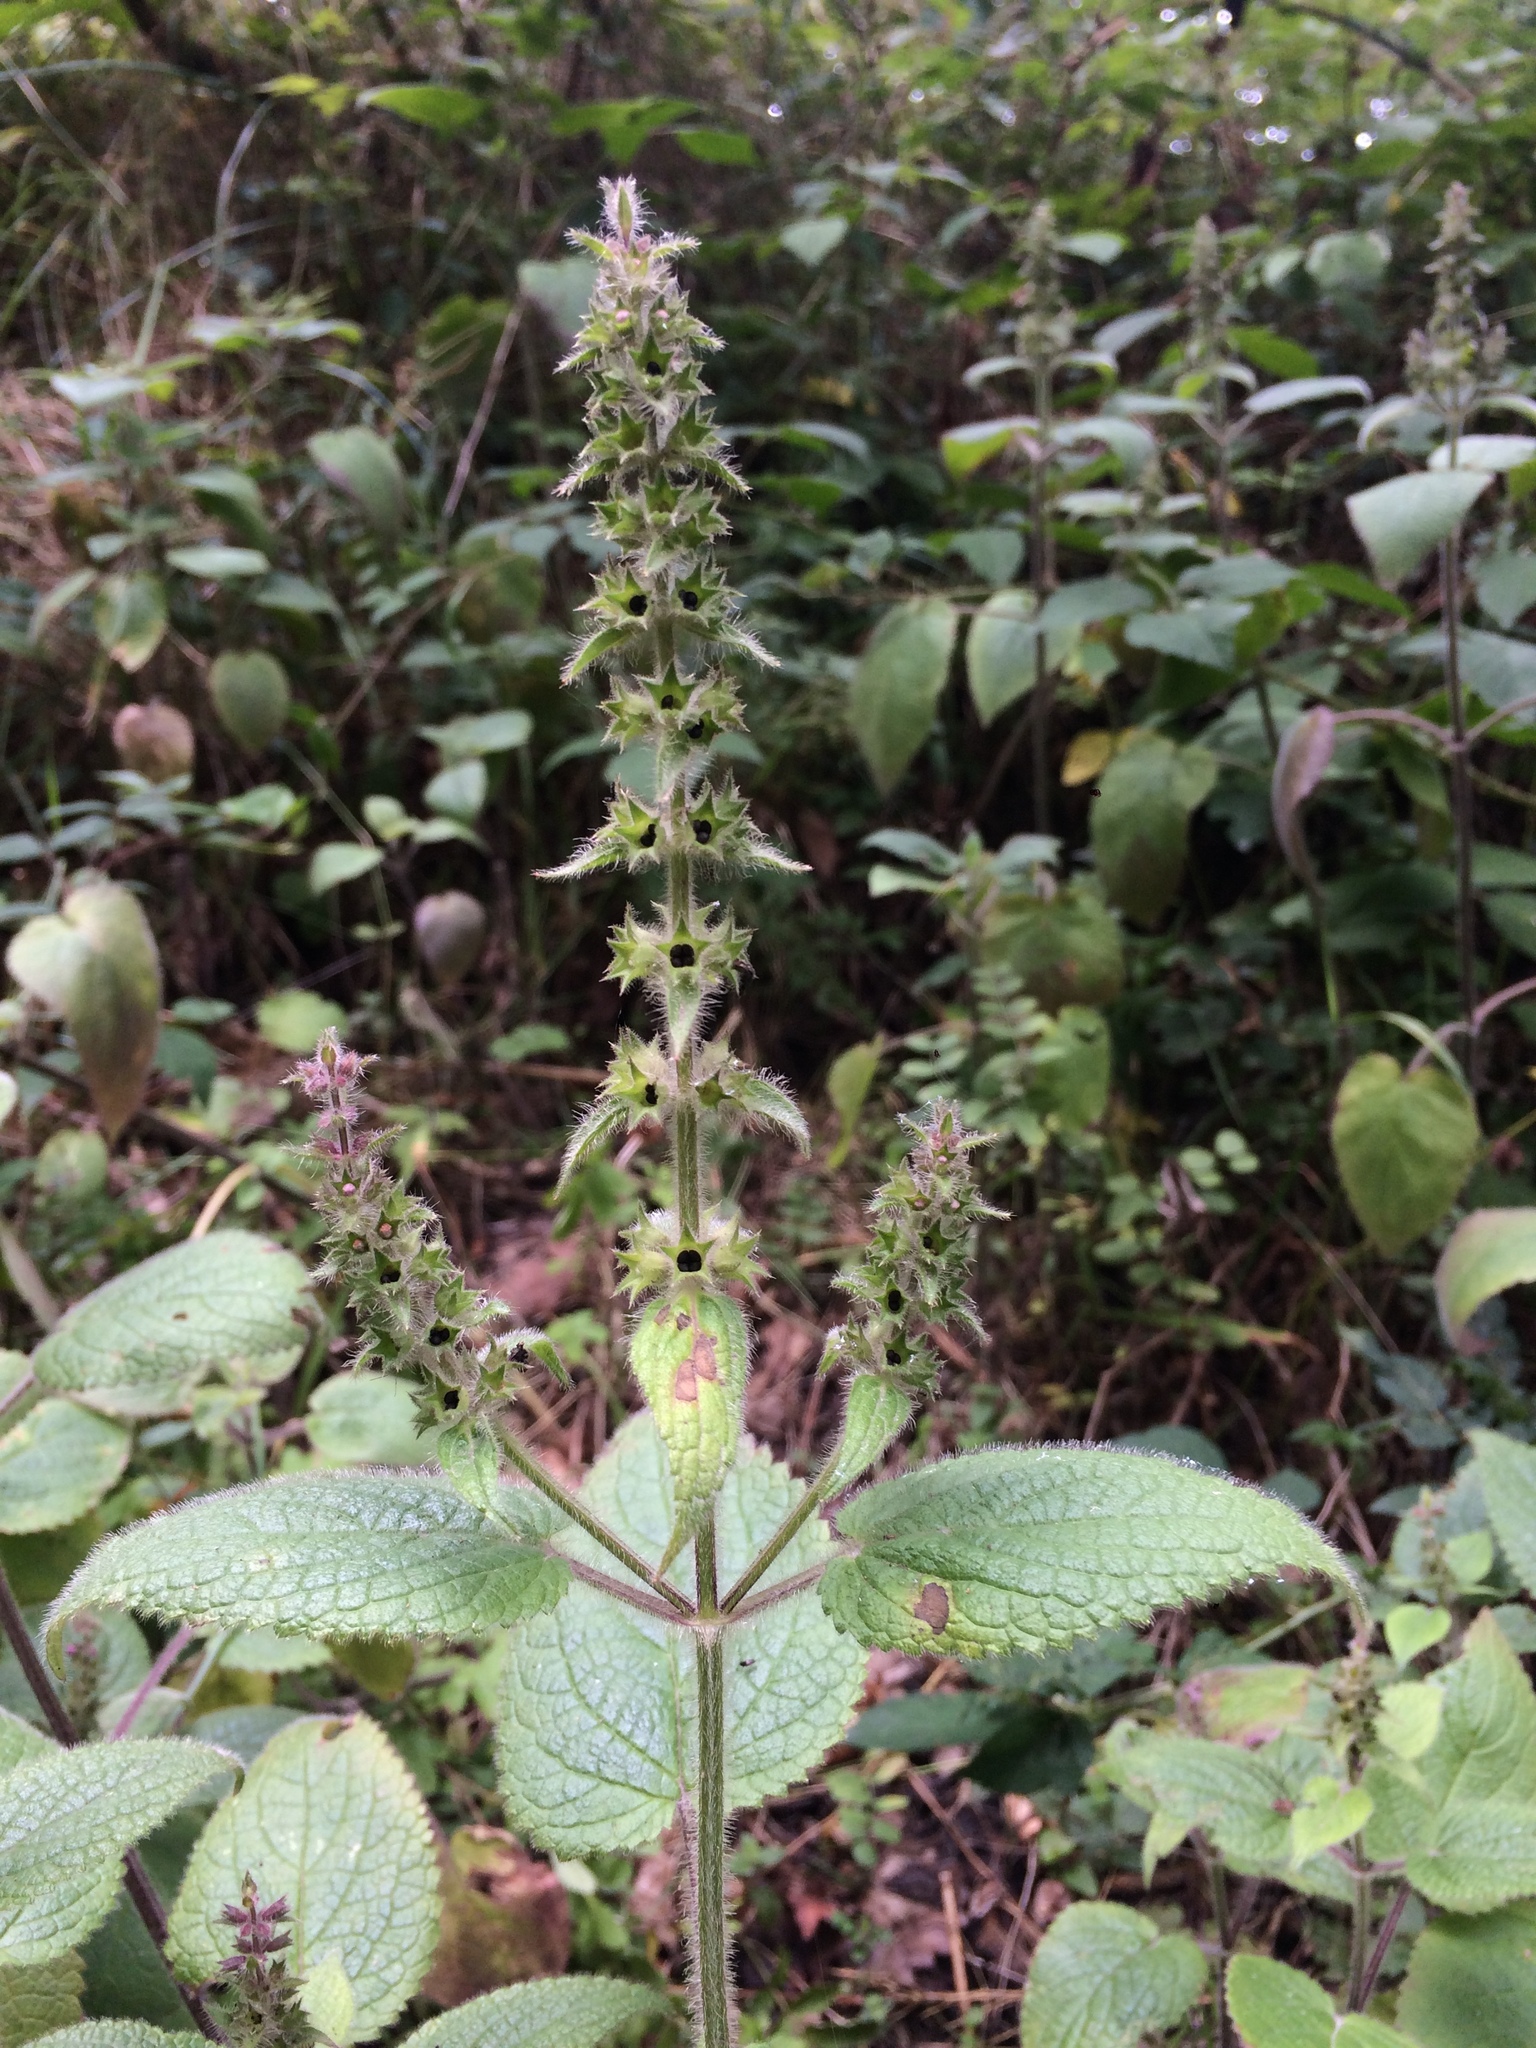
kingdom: Plantae
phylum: Tracheophyta
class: Magnoliopsida
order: Lamiales
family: Lamiaceae
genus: Stachys
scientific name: Stachys sylvatica
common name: Hedge woundwort
